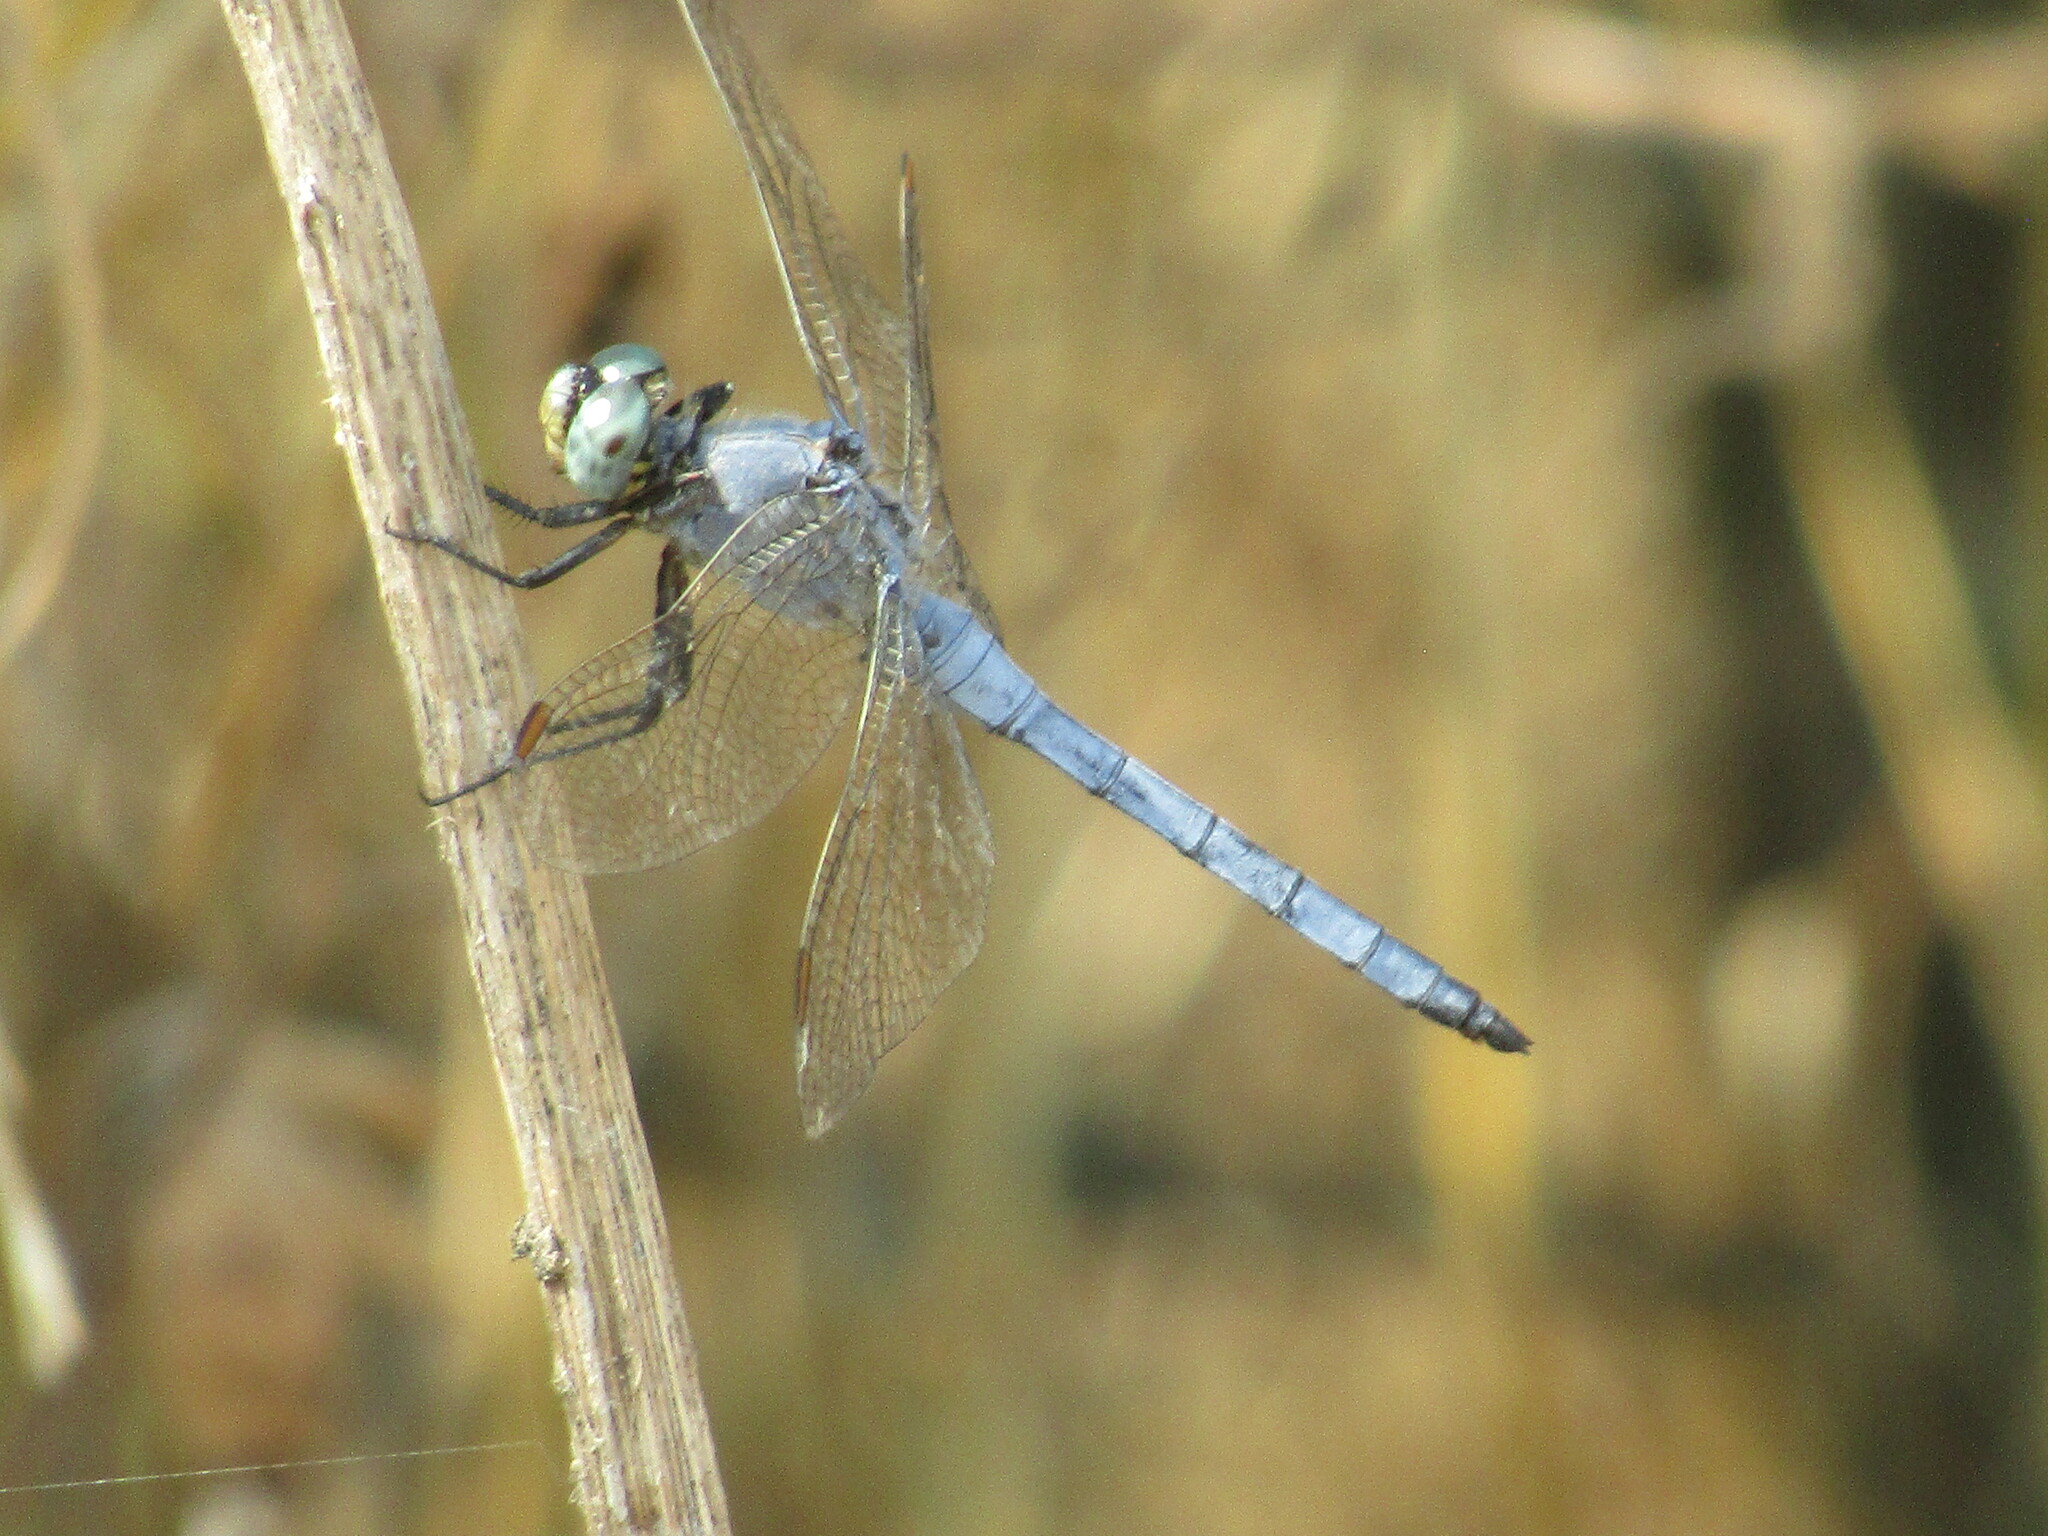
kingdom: Animalia
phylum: Arthropoda
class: Insecta
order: Odonata
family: Libellulidae
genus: Orthetrum
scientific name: Orthetrum coerulescens
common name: Keeled skimmer
